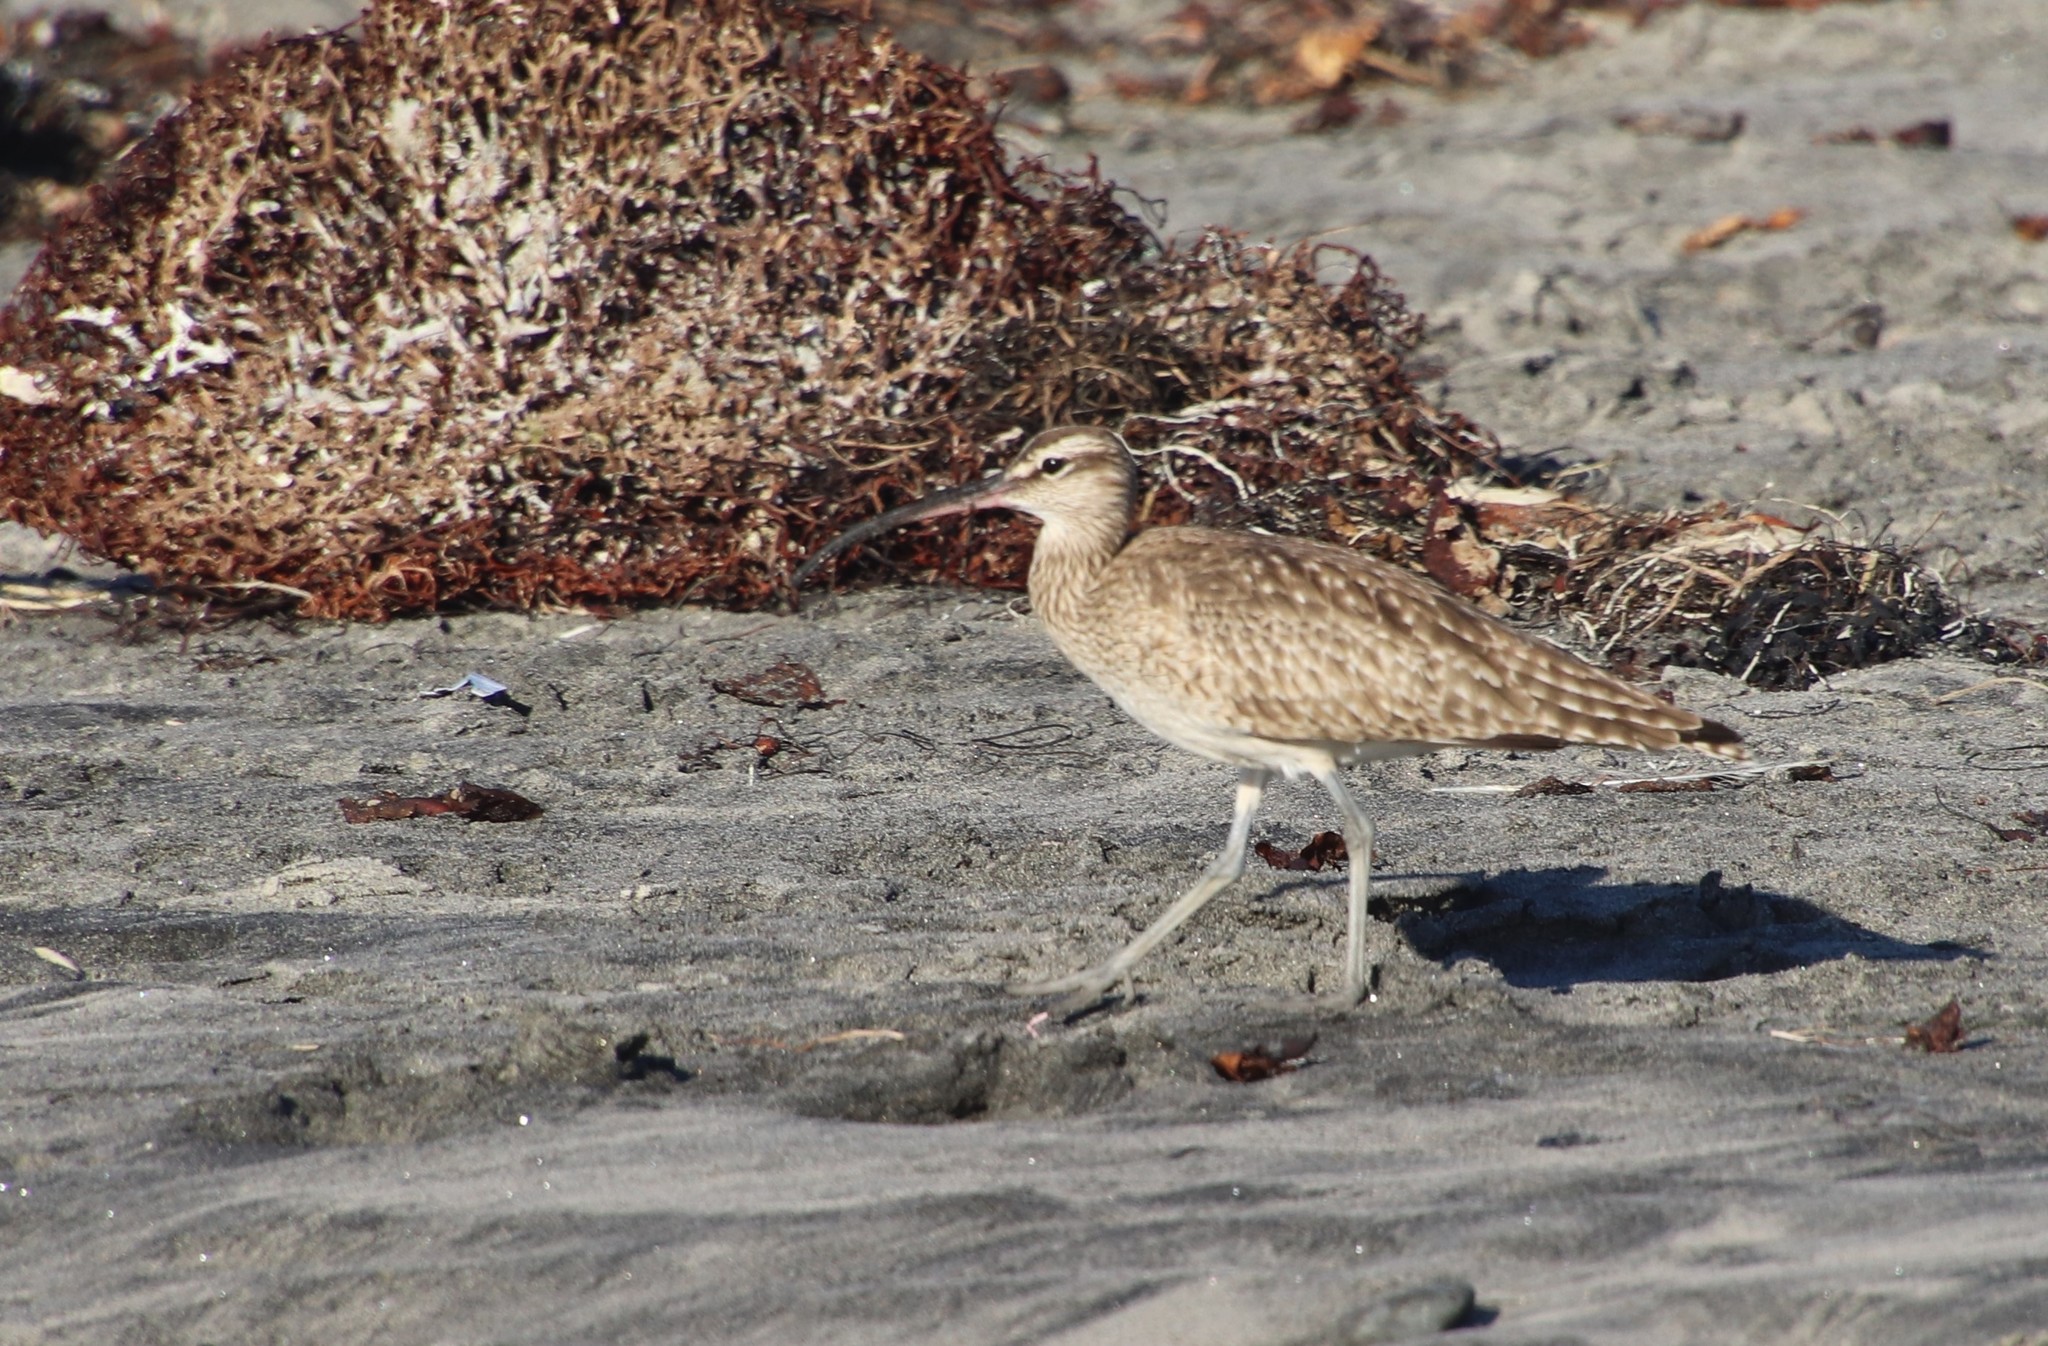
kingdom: Animalia
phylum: Chordata
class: Aves
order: Charadriiformes
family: Scolopacidae
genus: Numenius
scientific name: Numenius phaeopus
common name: Whimbrel
